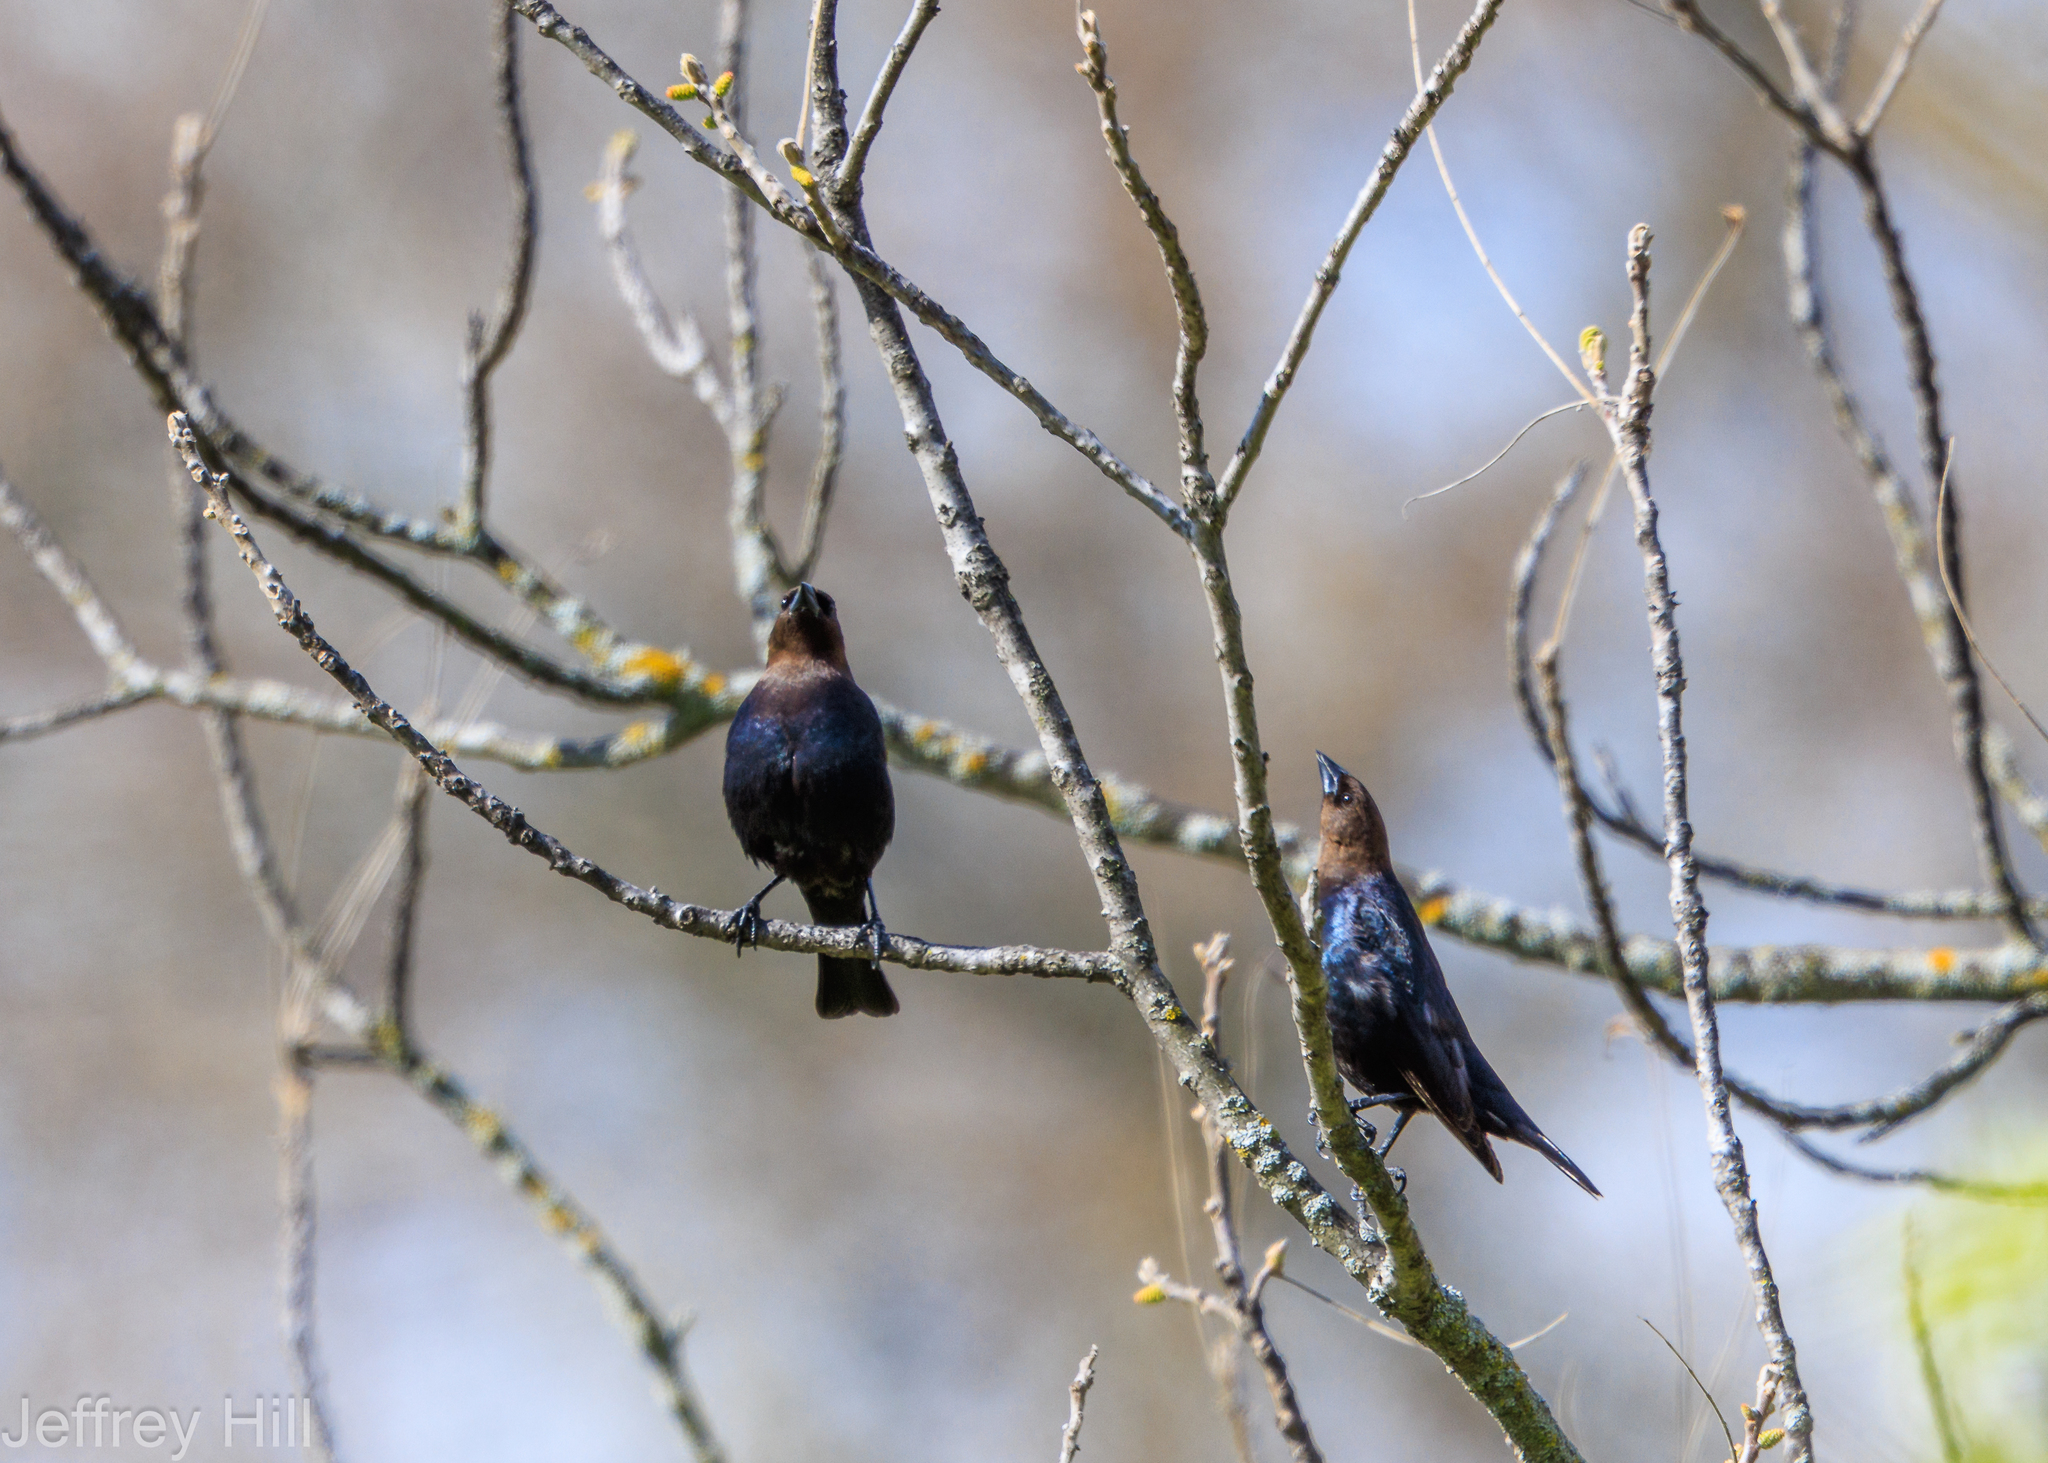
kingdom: Animalia
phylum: Chordata
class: Aves
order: Passeriformes
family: Icteridae
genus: Molothrus
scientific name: Molothrus ater
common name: Brown-headed cowbird
